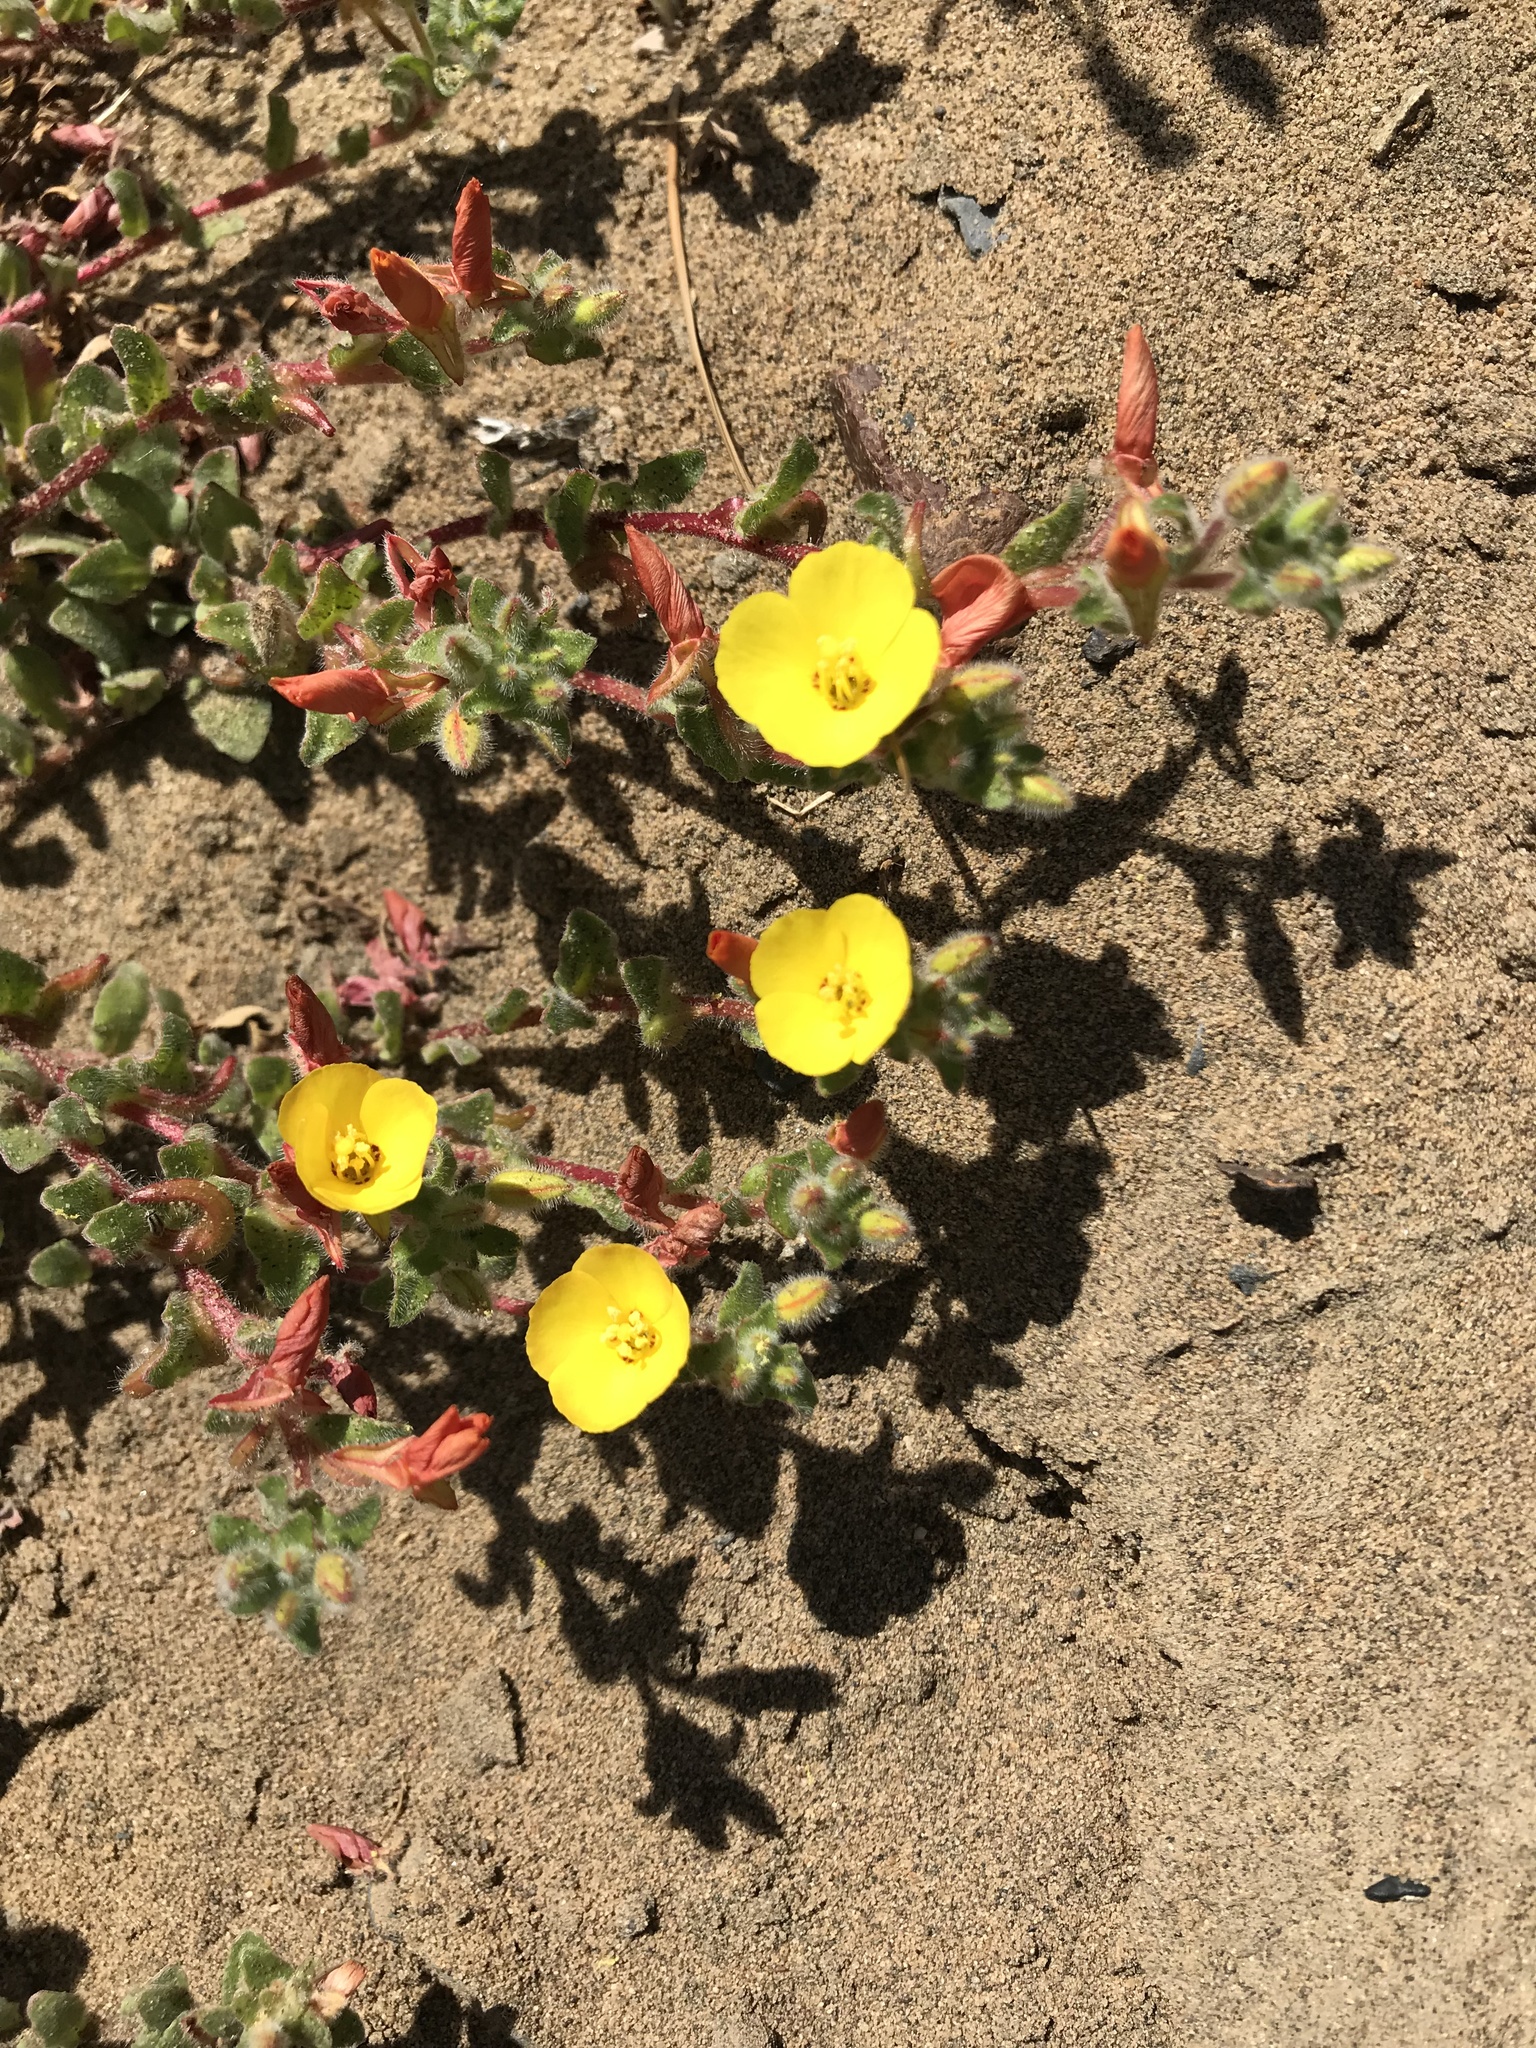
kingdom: Plantae
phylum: Tracheophyta
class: Magnoliopsida
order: Myrtales
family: Onagraceae
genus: Camissoniopsis
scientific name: Camissoniopsis cheiranthifolia
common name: Beach suncup
